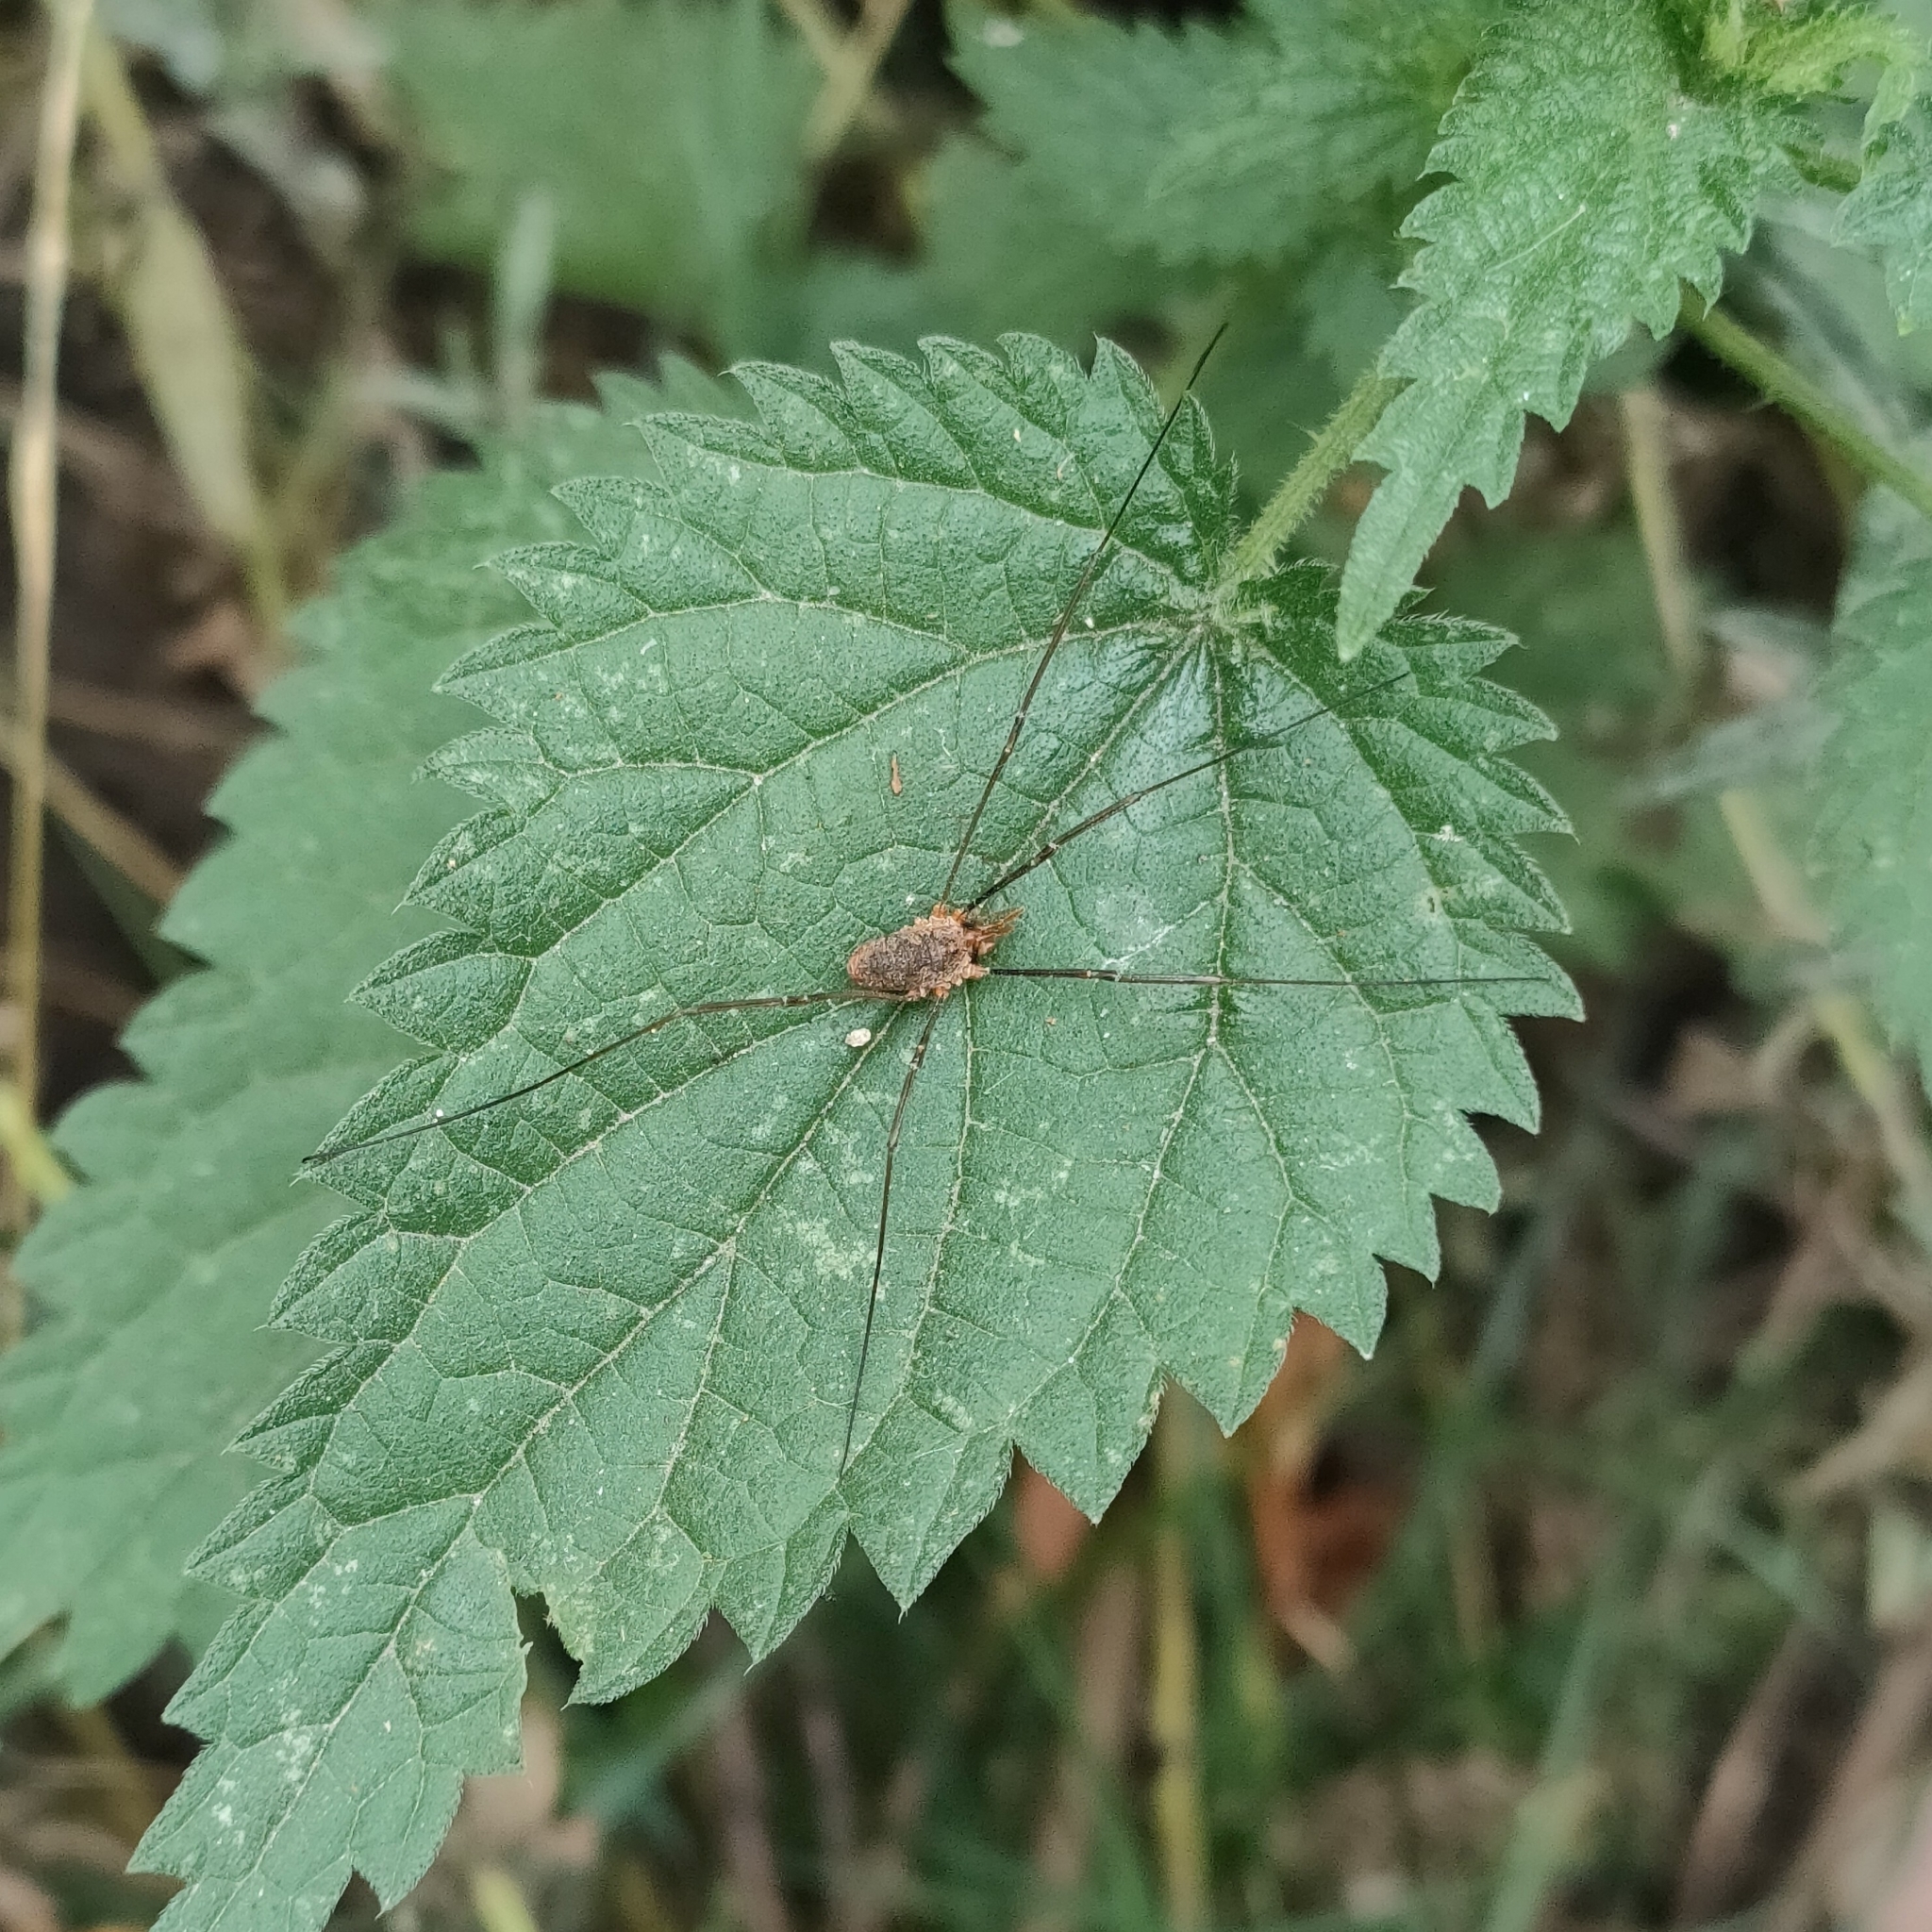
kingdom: Animalia
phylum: Arthropoda
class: Arachnida
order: Opiliones
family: Phalangiidae
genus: Phalangium
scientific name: Phalangium opilio
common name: Daddy longleg
